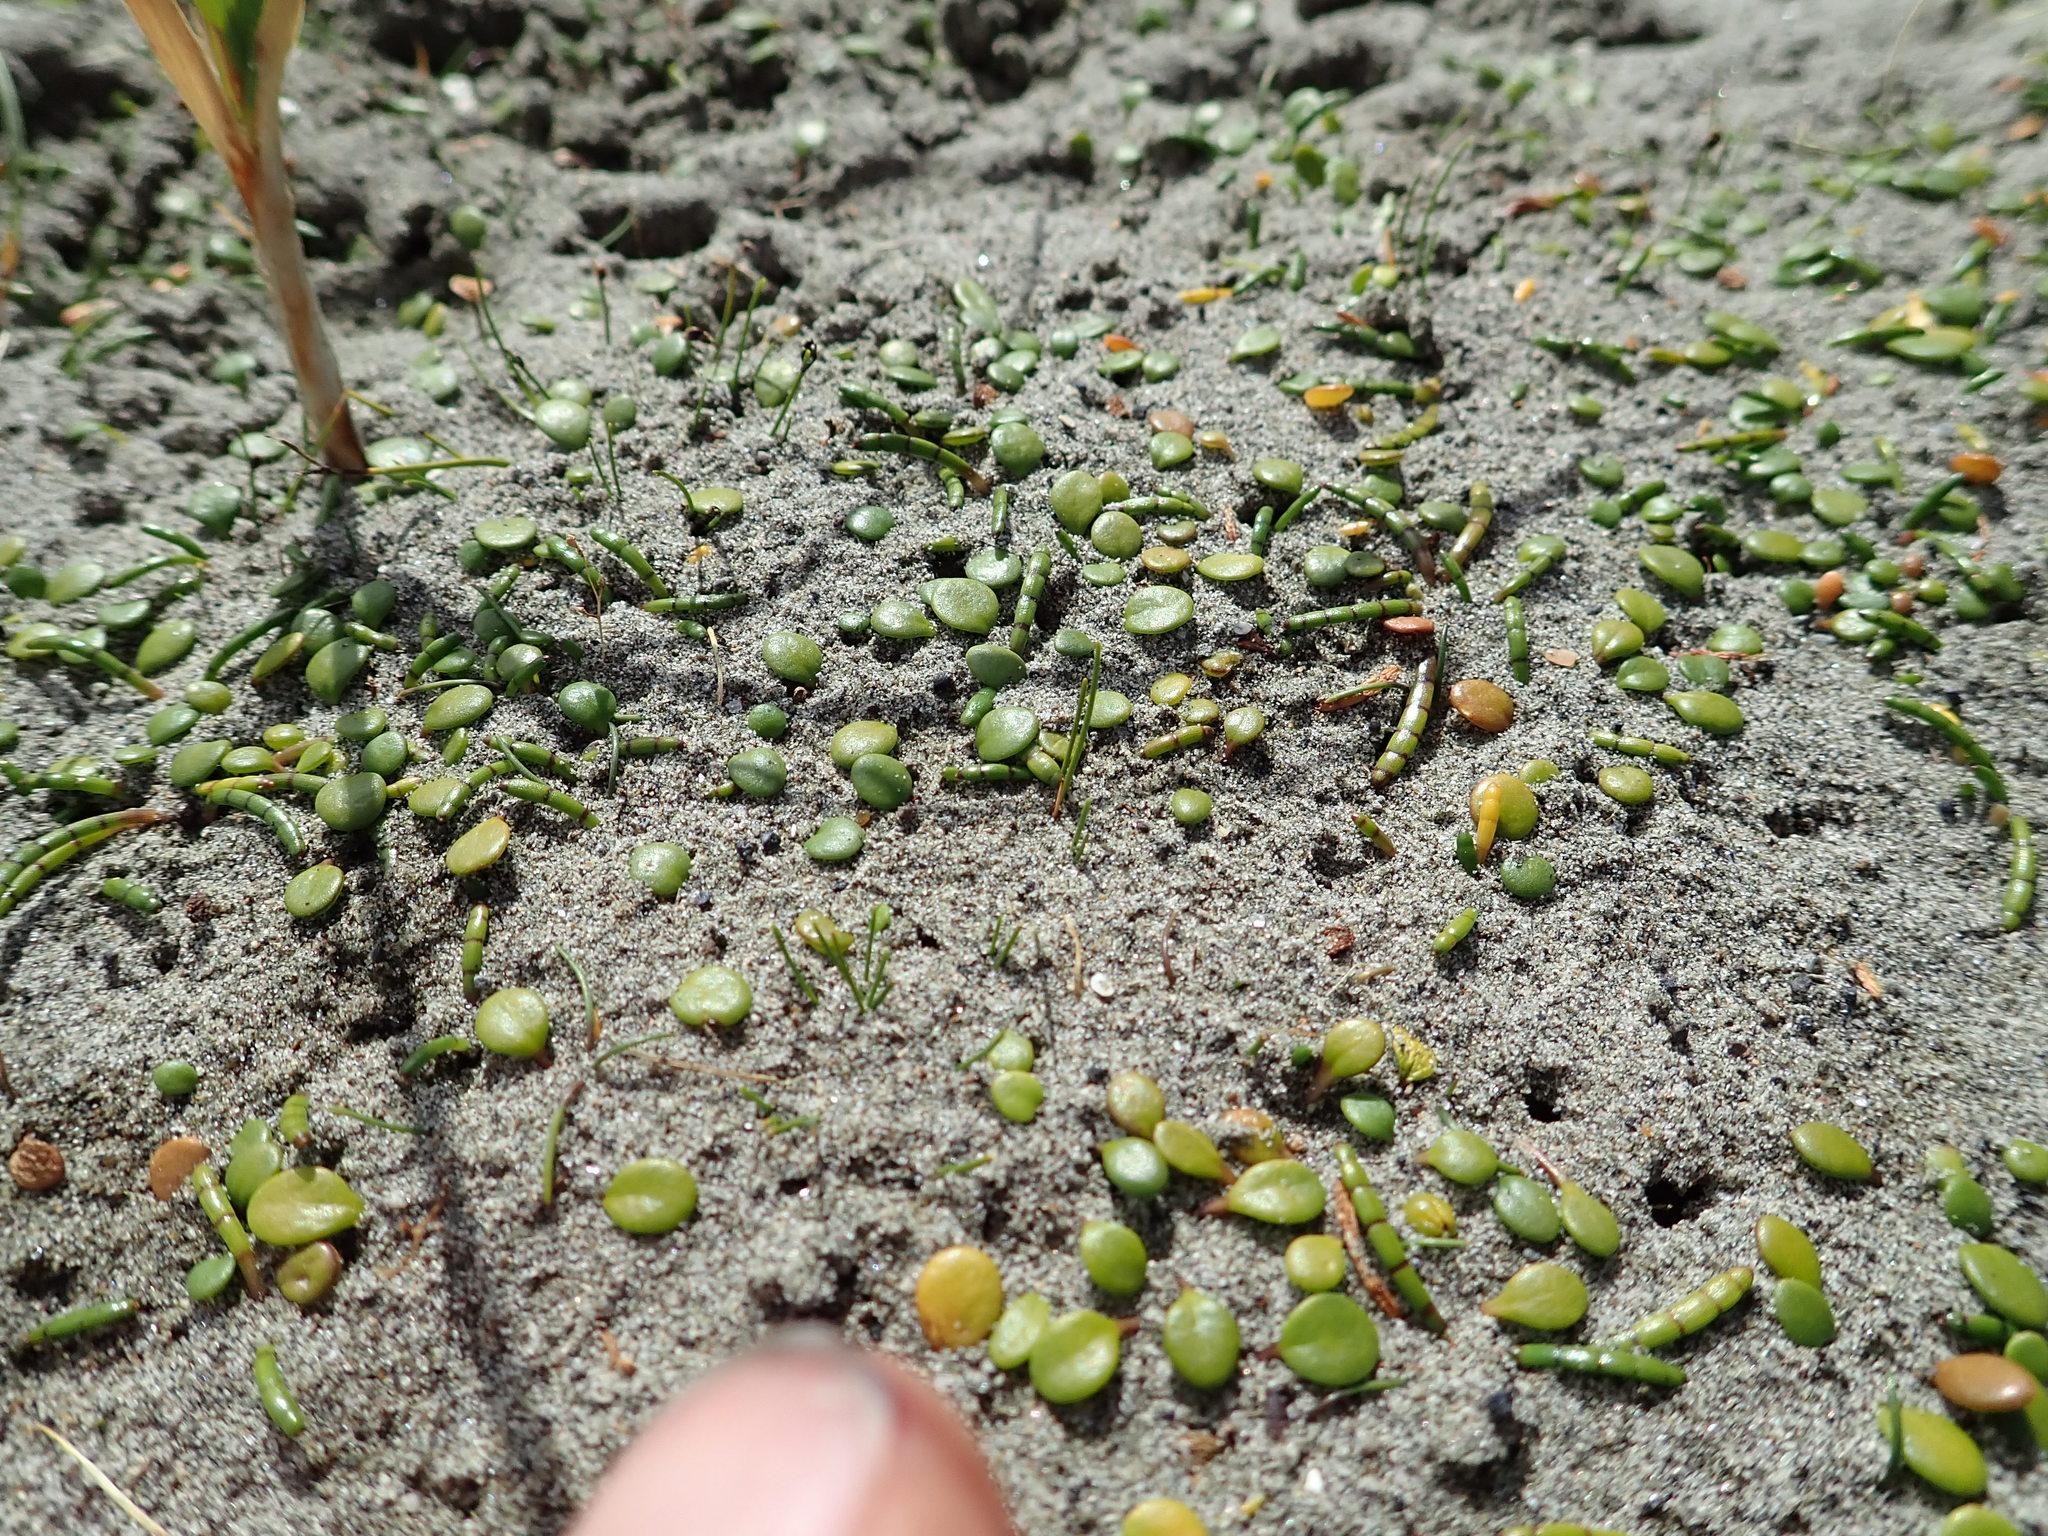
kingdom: Plantae
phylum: Tracheophyta
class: Magnoliopsida
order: Apiales
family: Apiaceae
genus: Lilaeopsis
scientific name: Lilaeopsis novae-zelandiae
